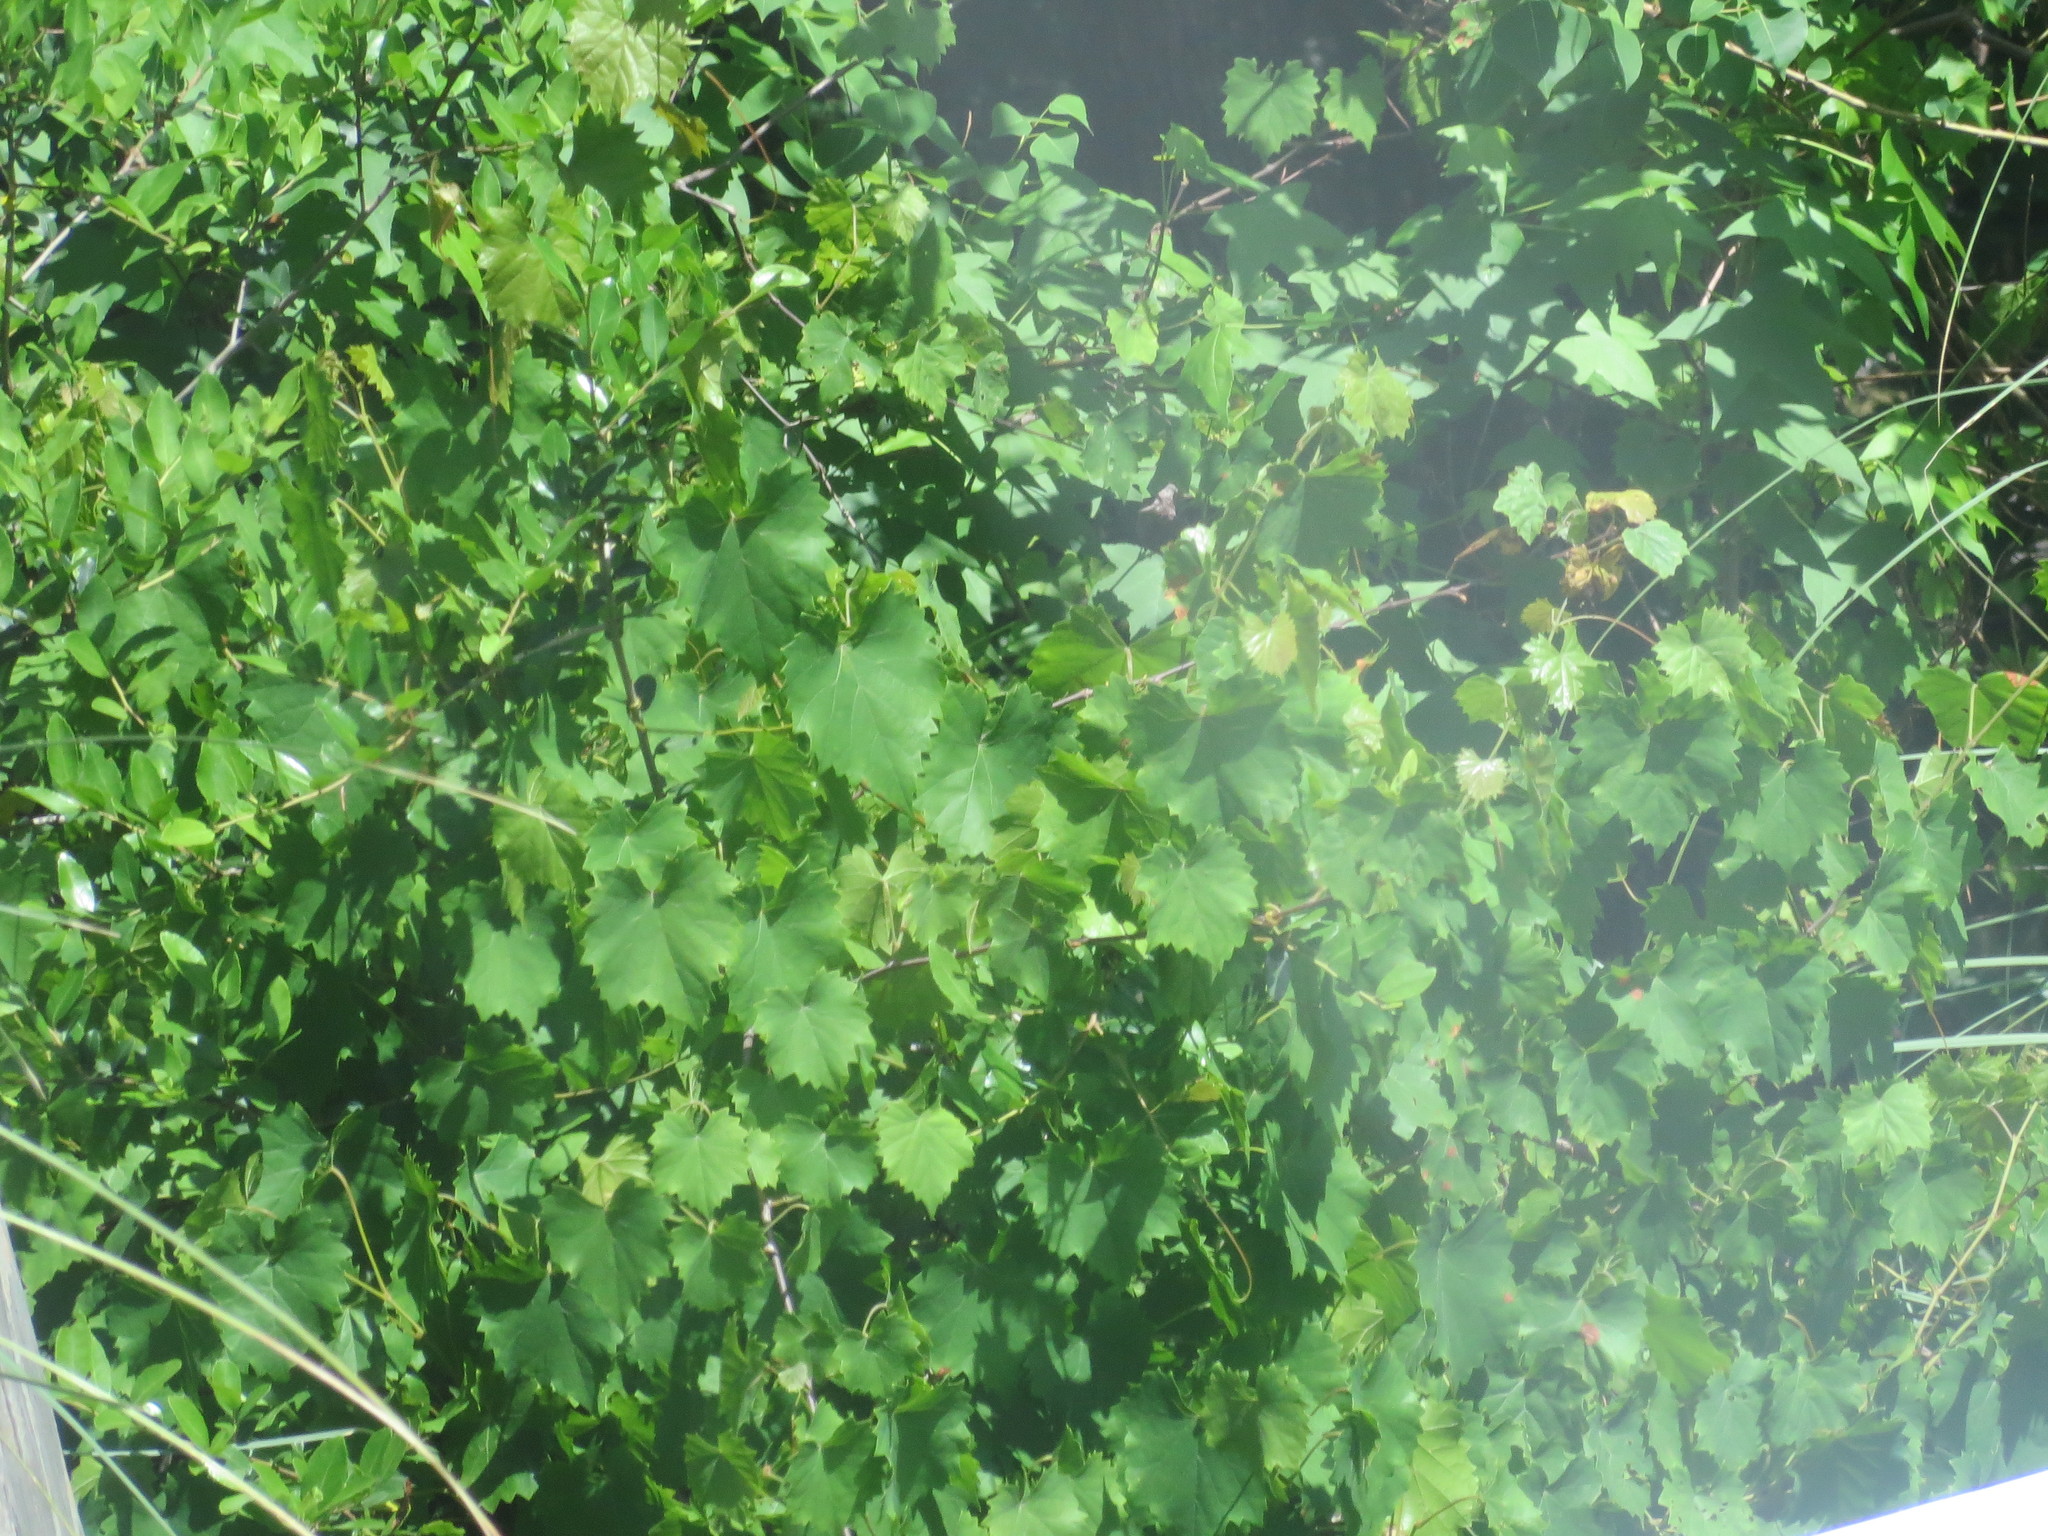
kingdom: Plantae
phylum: Tracheophyta
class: Magnoliopsida
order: Vitales
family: Vitaceae
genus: Vitis
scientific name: Vitis rotundifolia
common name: Muscadine grape
